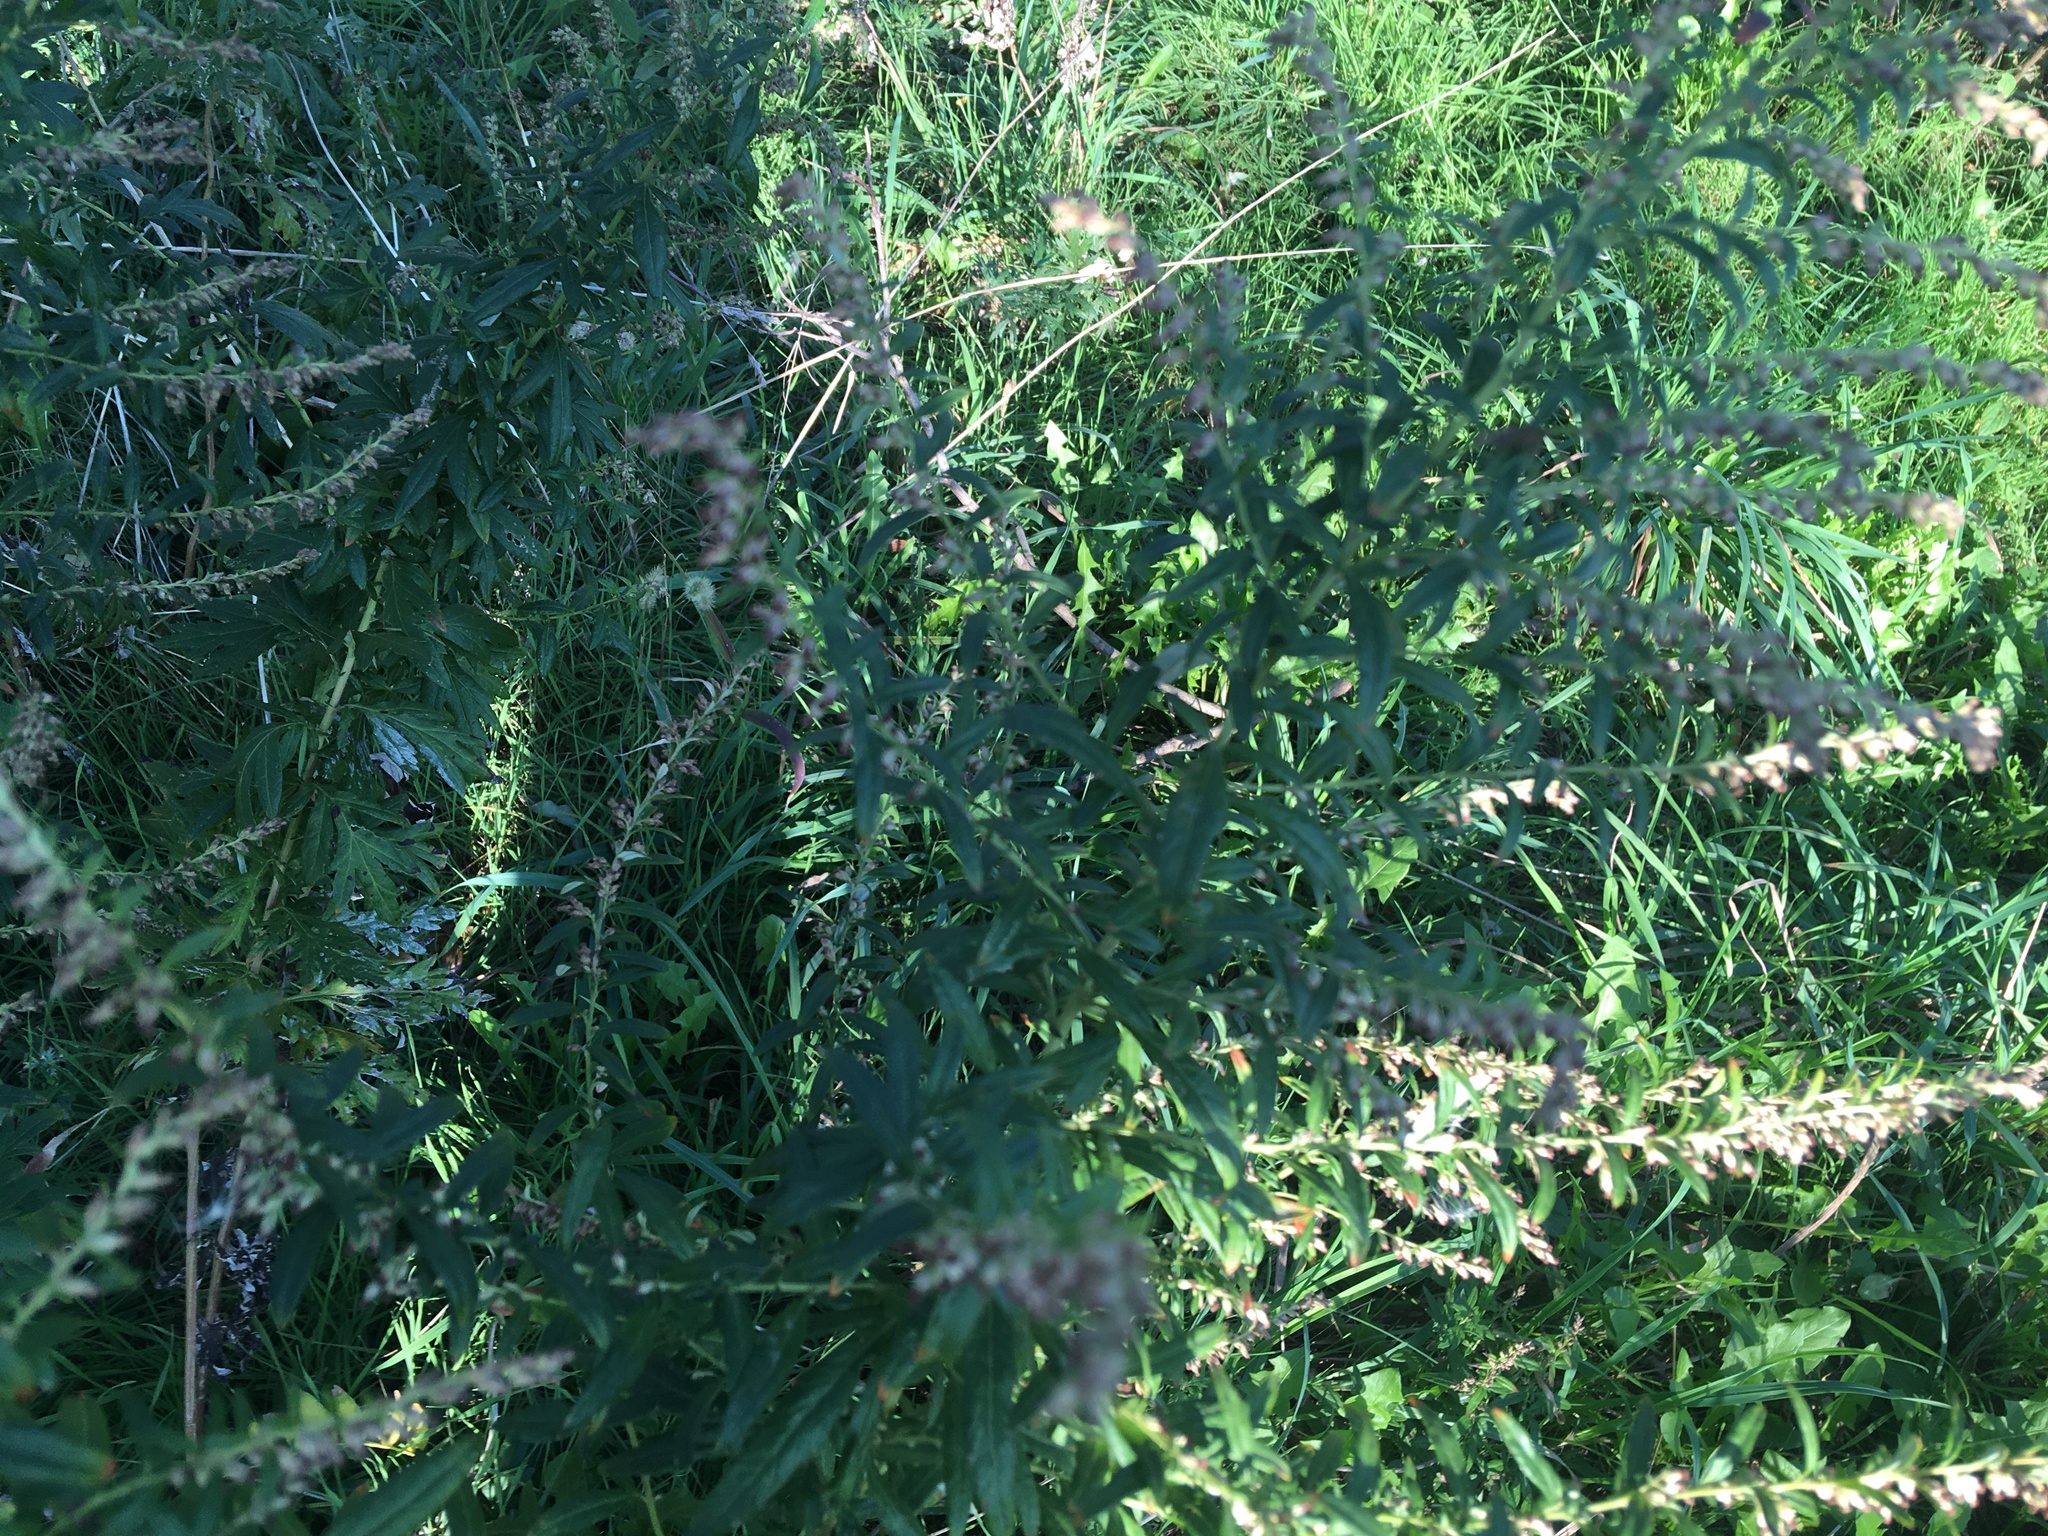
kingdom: Plantae
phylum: Tracheophyta
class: Magnoliopsida
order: Asterales
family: Asteraceae
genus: Artemisia
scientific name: Artemisia vulgaris
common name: Mugwort
